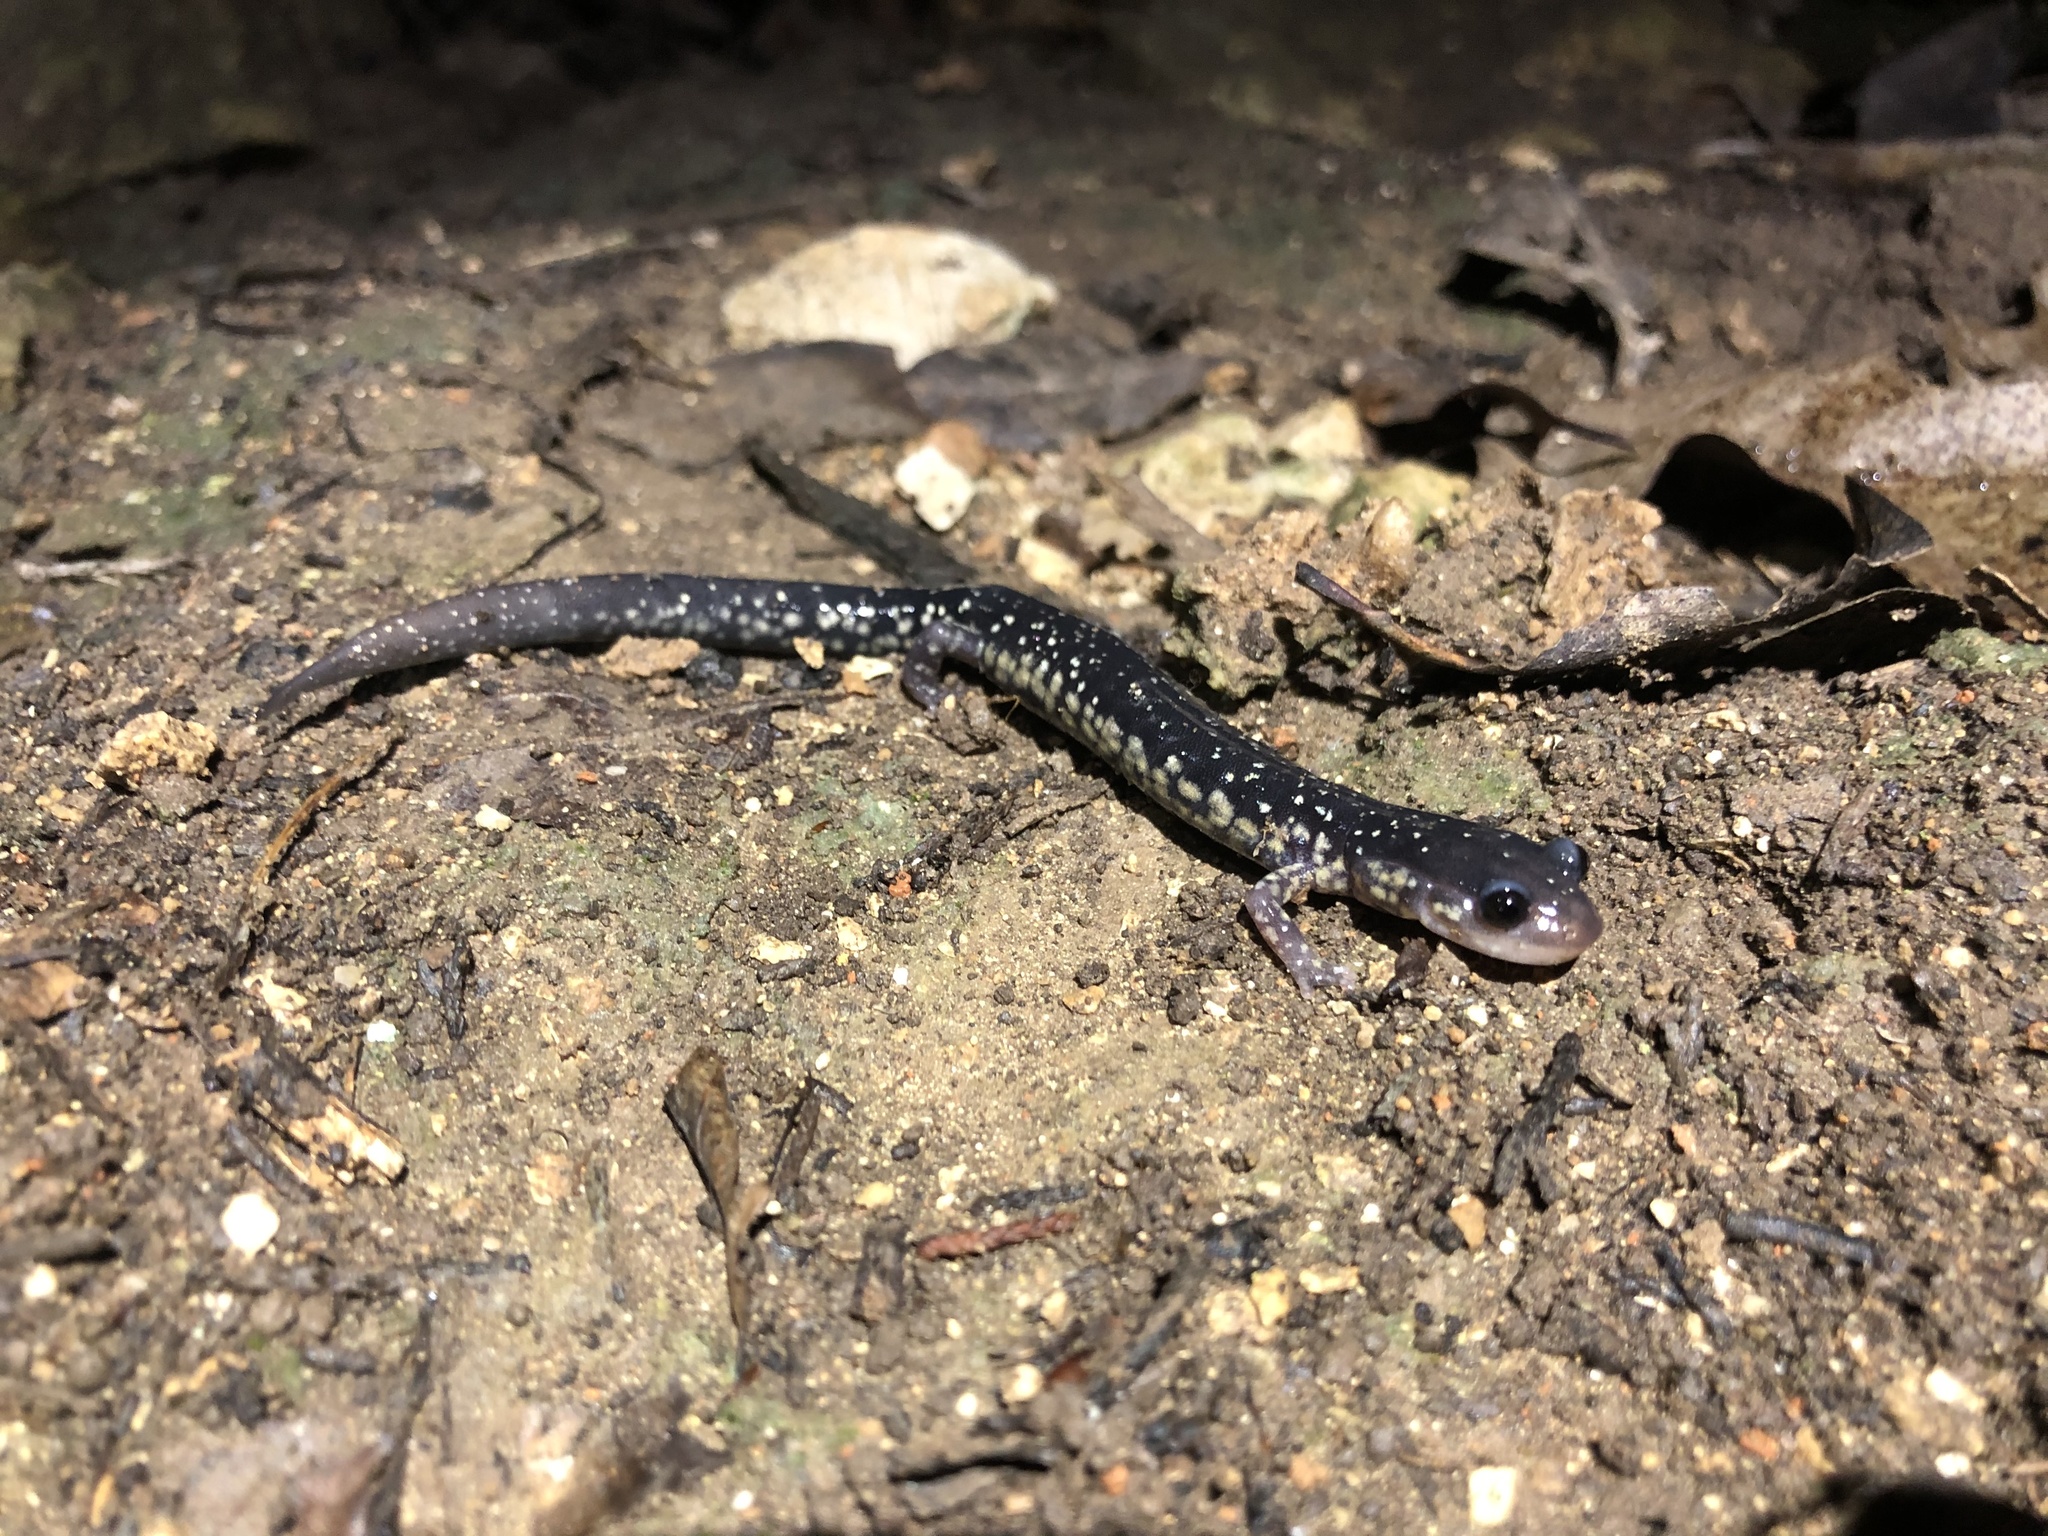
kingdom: Animalia
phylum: Chordata
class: Amphibia
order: Caudata
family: Plethodontidae
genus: Plethodon
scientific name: Plethodon albagula
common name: Western slimy salamander
